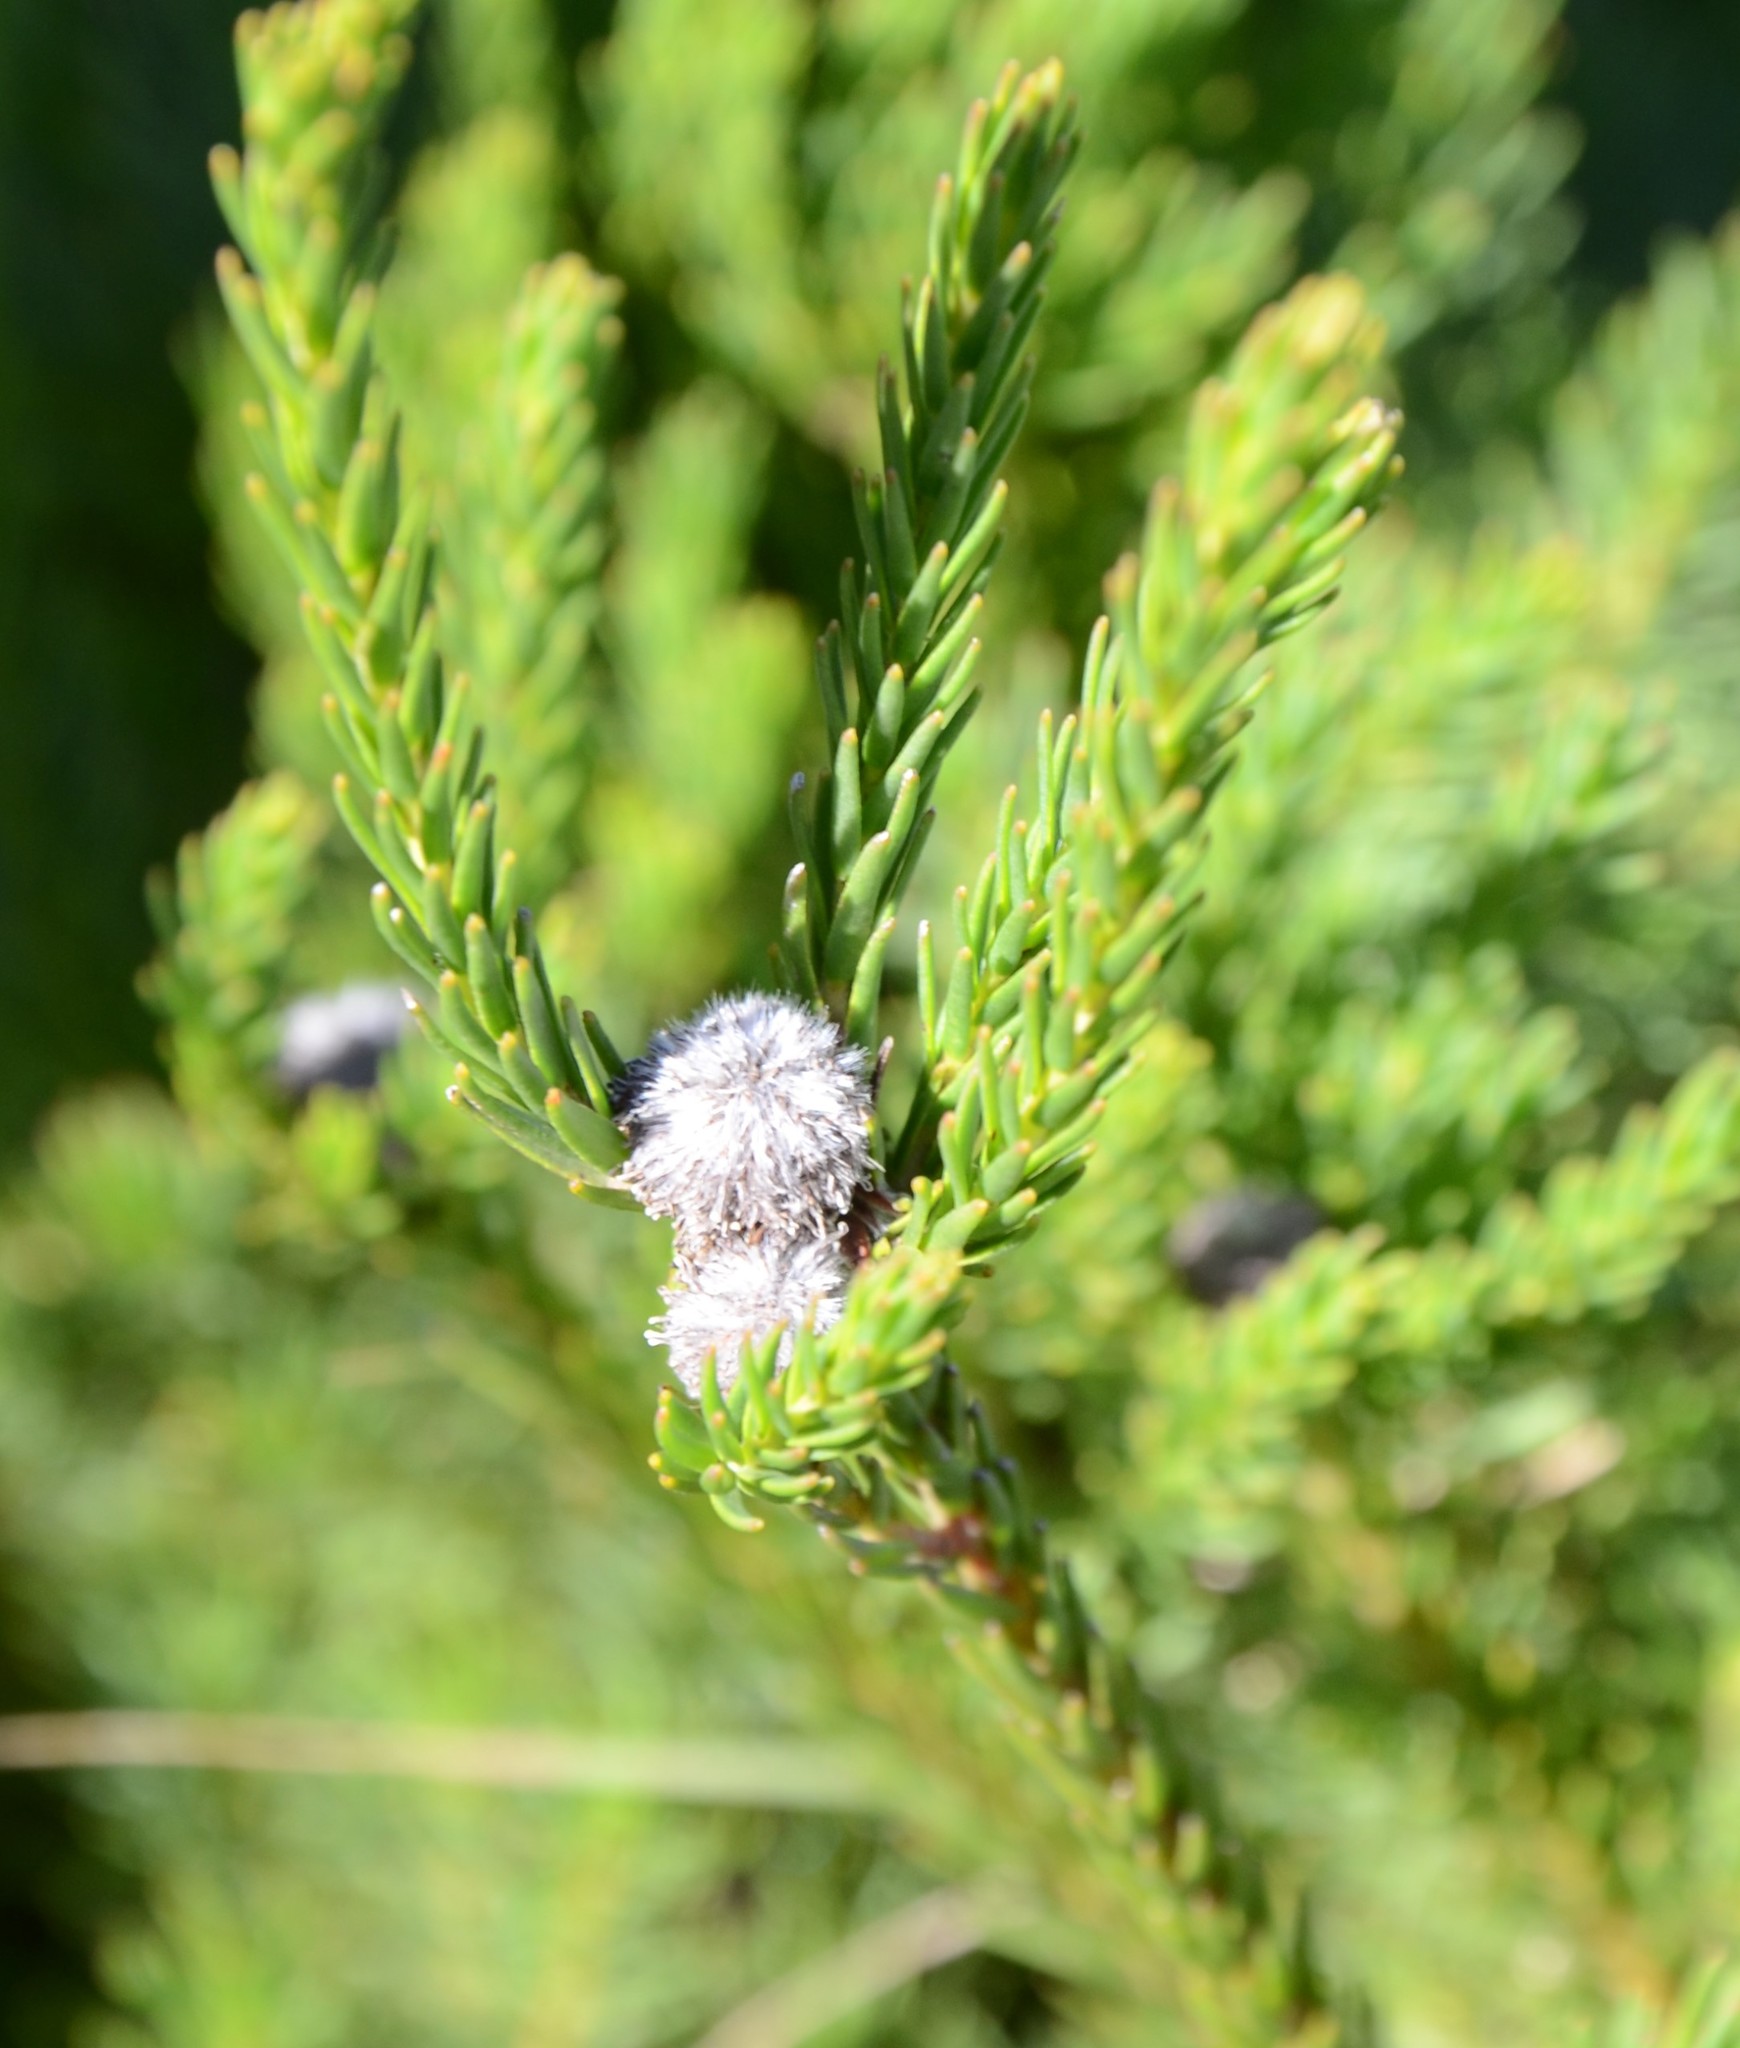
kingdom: Plantae
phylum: Tracheophyta
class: Magnoliopsida
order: Proteales
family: Proteaceae
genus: Leucadendron
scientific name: Leucadendron corymbosum
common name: Swartveld conebush
